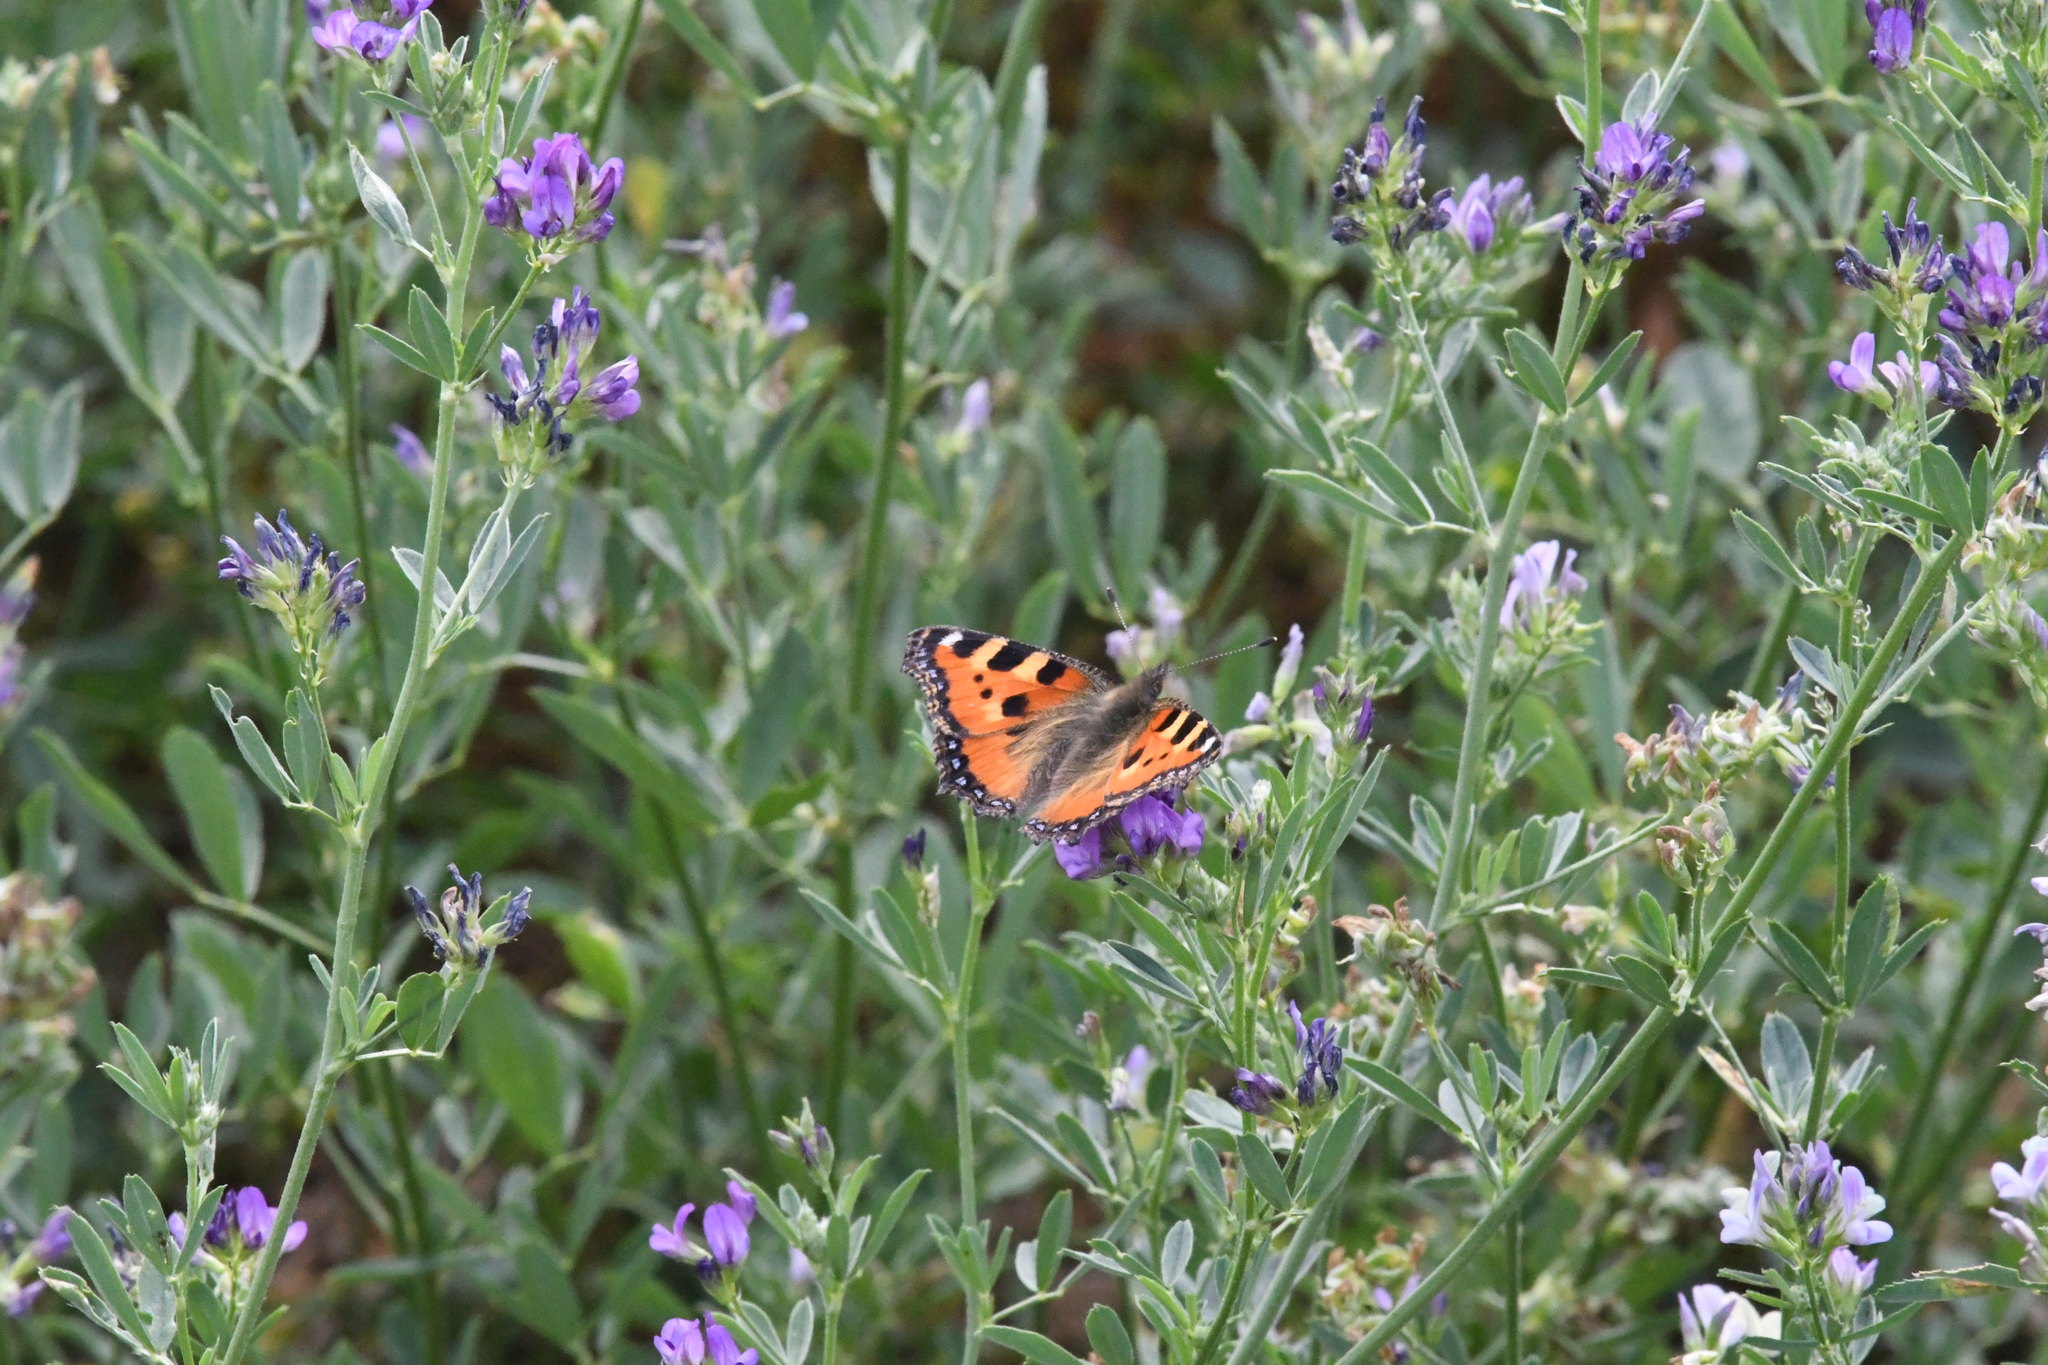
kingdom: Animalia
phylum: Arthropoda
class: Insecta
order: Lepidoptera
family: Nymphalidae
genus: Aglais
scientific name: Aglais urticae
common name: Small tortoiseshell
